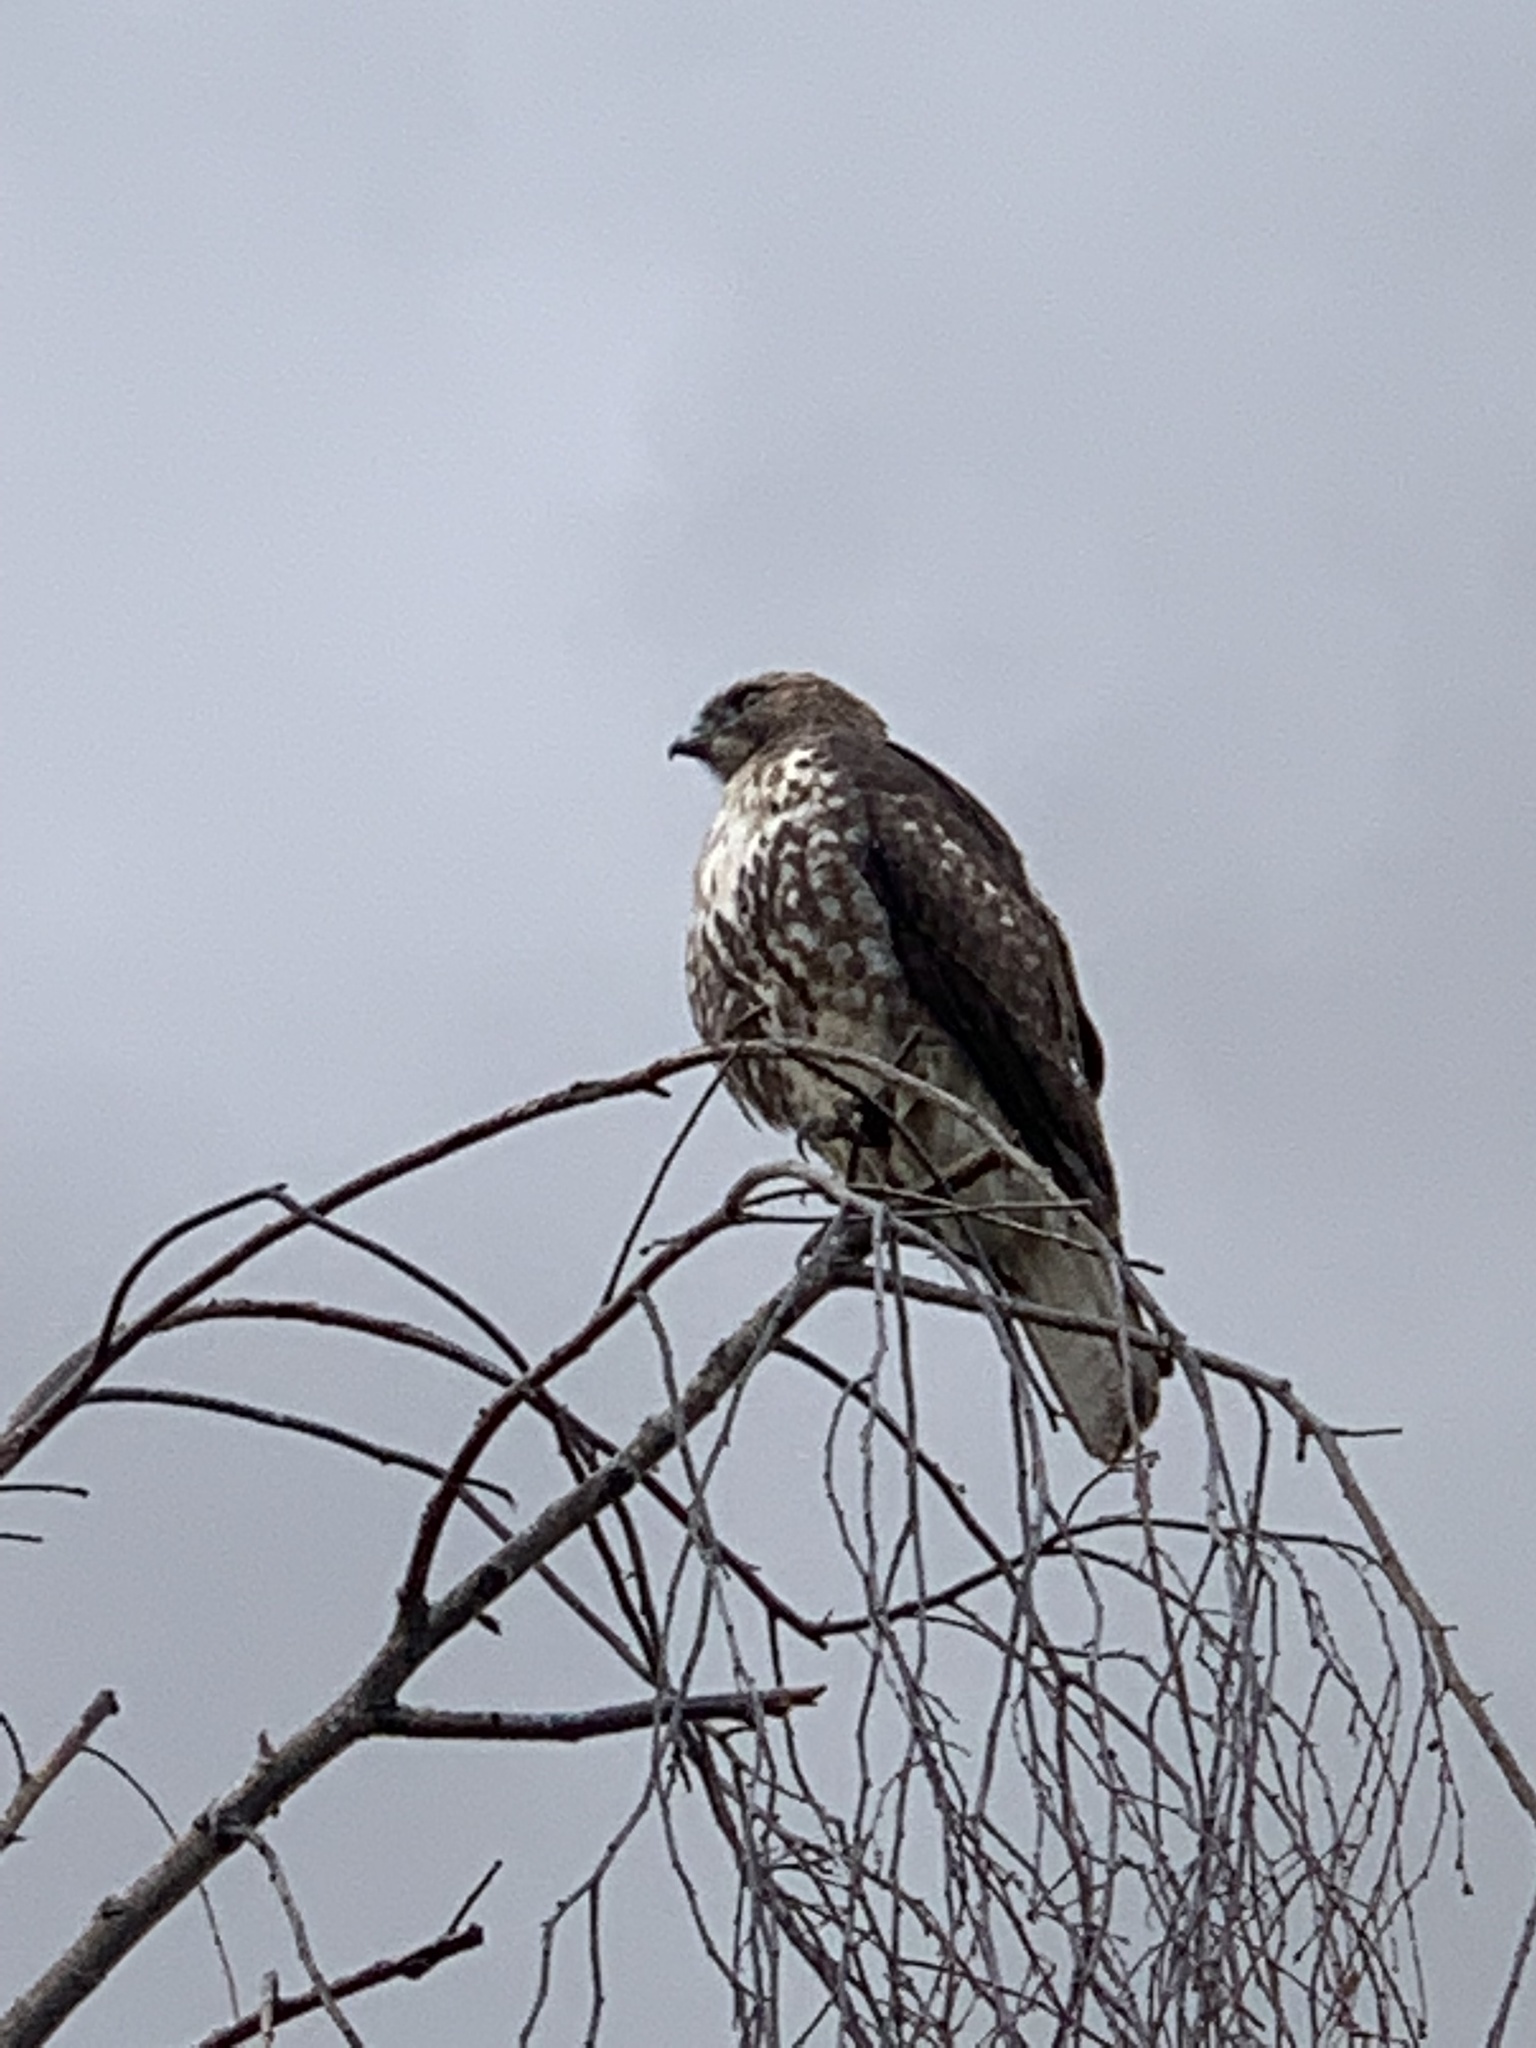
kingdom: Animalia
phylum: Chordata
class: Aves
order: Accipitriformes
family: Accipitridae
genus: Buteo
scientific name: Buteo jamaicensis
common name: Red-tailed hawk
